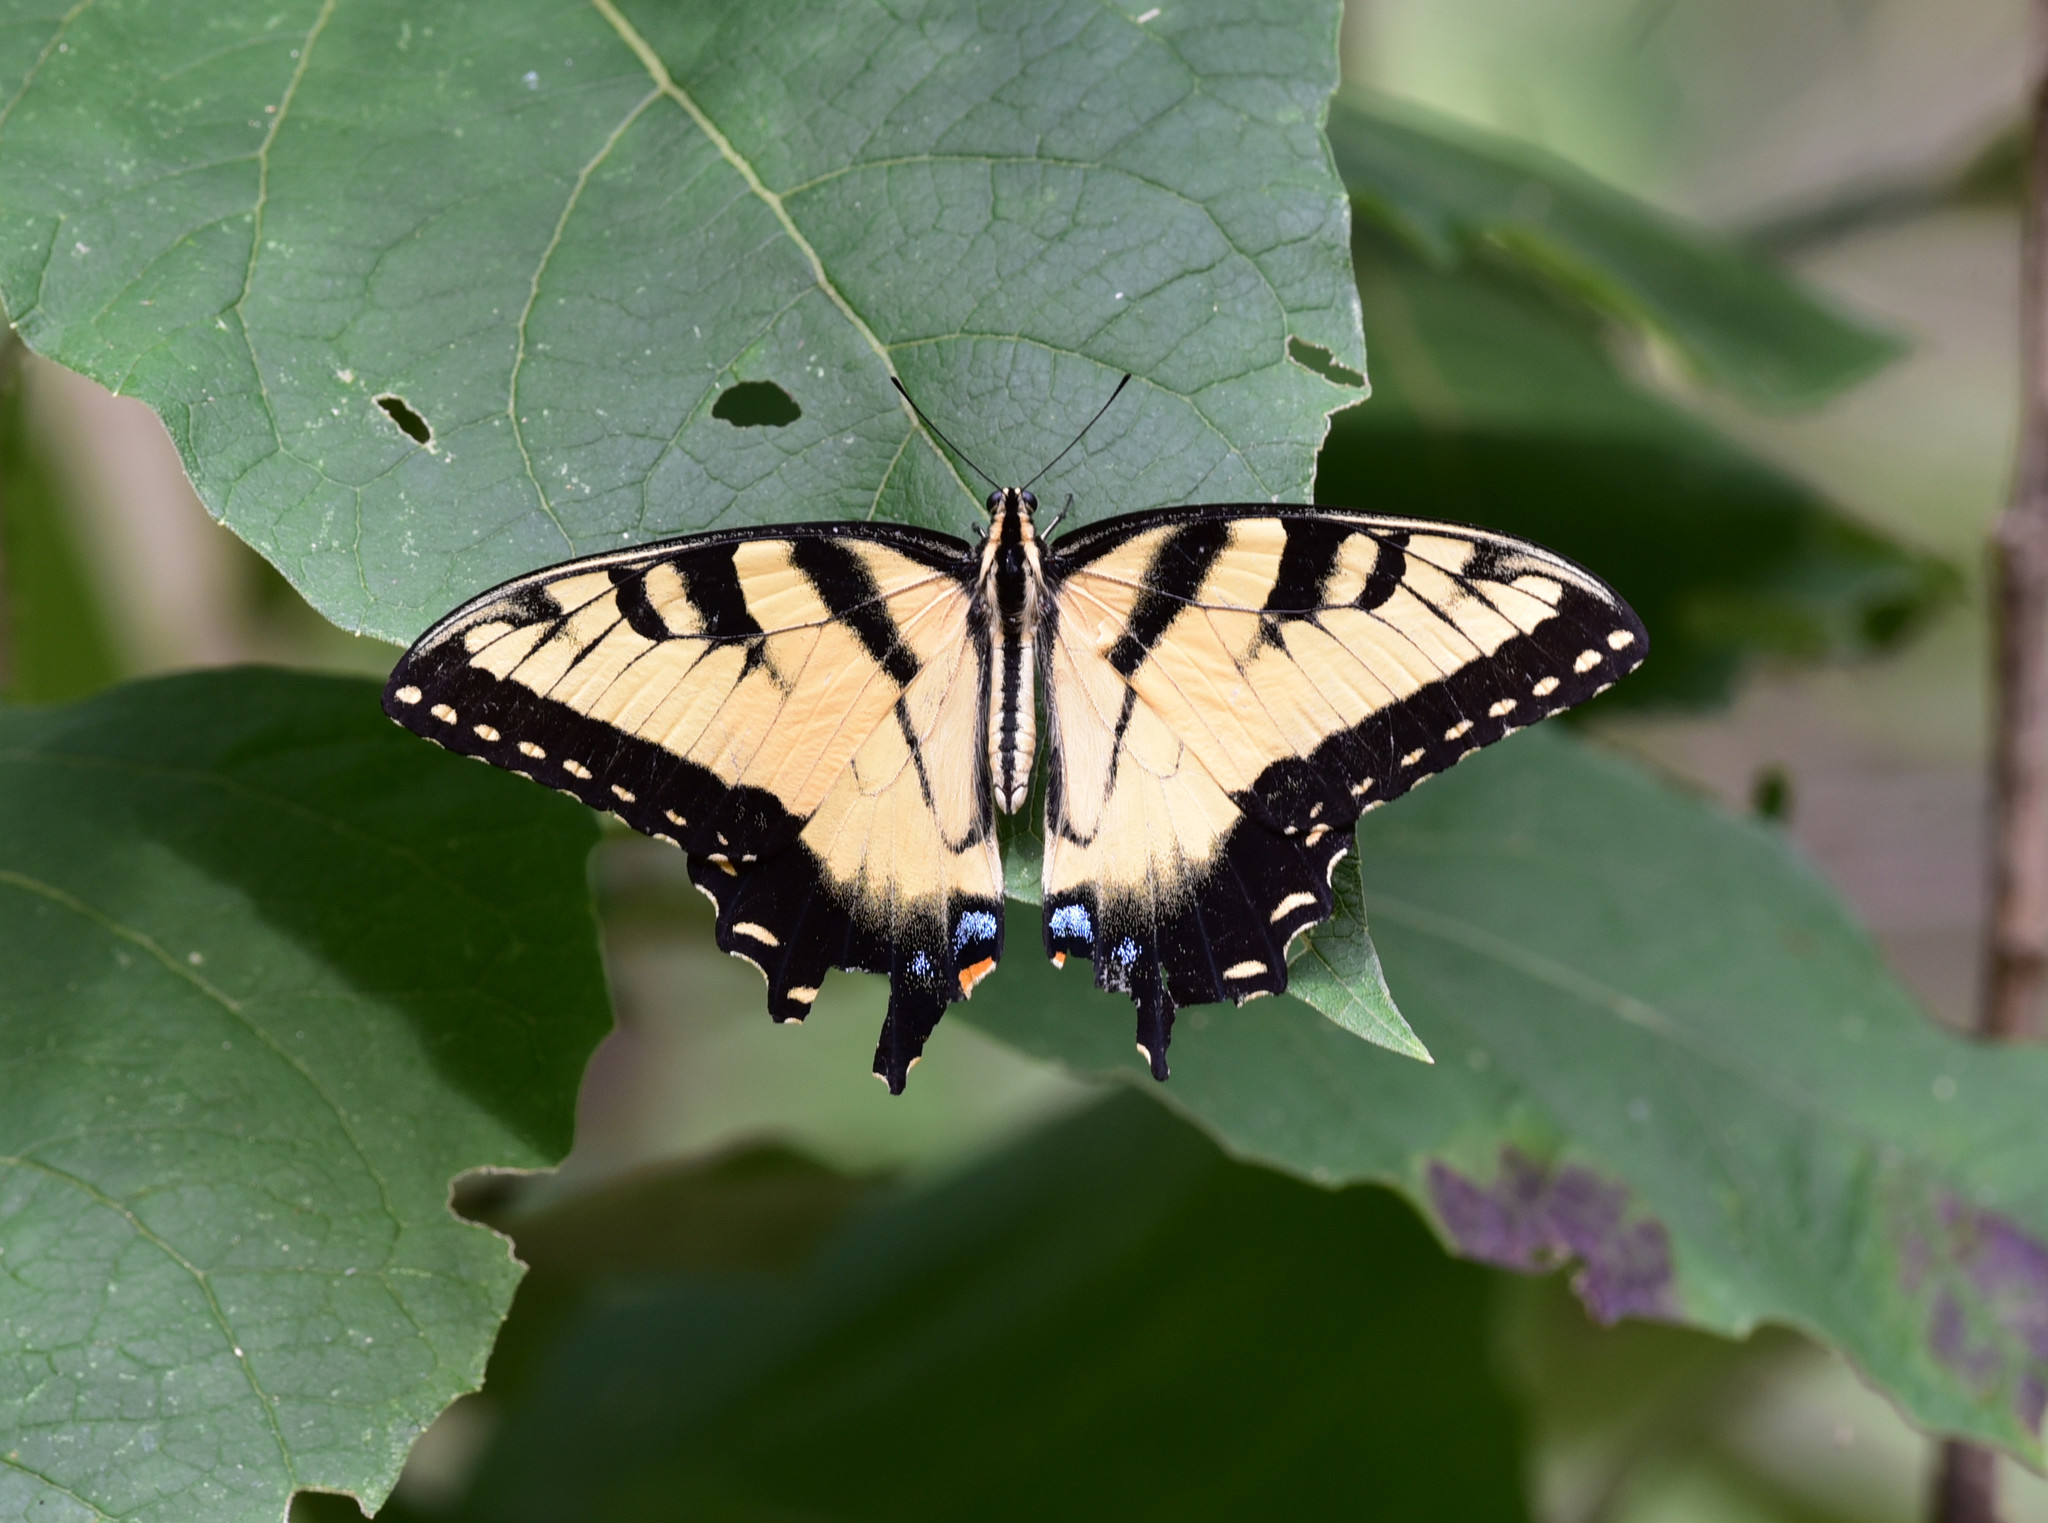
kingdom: Animalia
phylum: Arthropoda
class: Insecta
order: Lepidoptera
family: Papilionidae
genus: Papilio
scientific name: Papilio glaucus
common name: Tiger swallowtail
